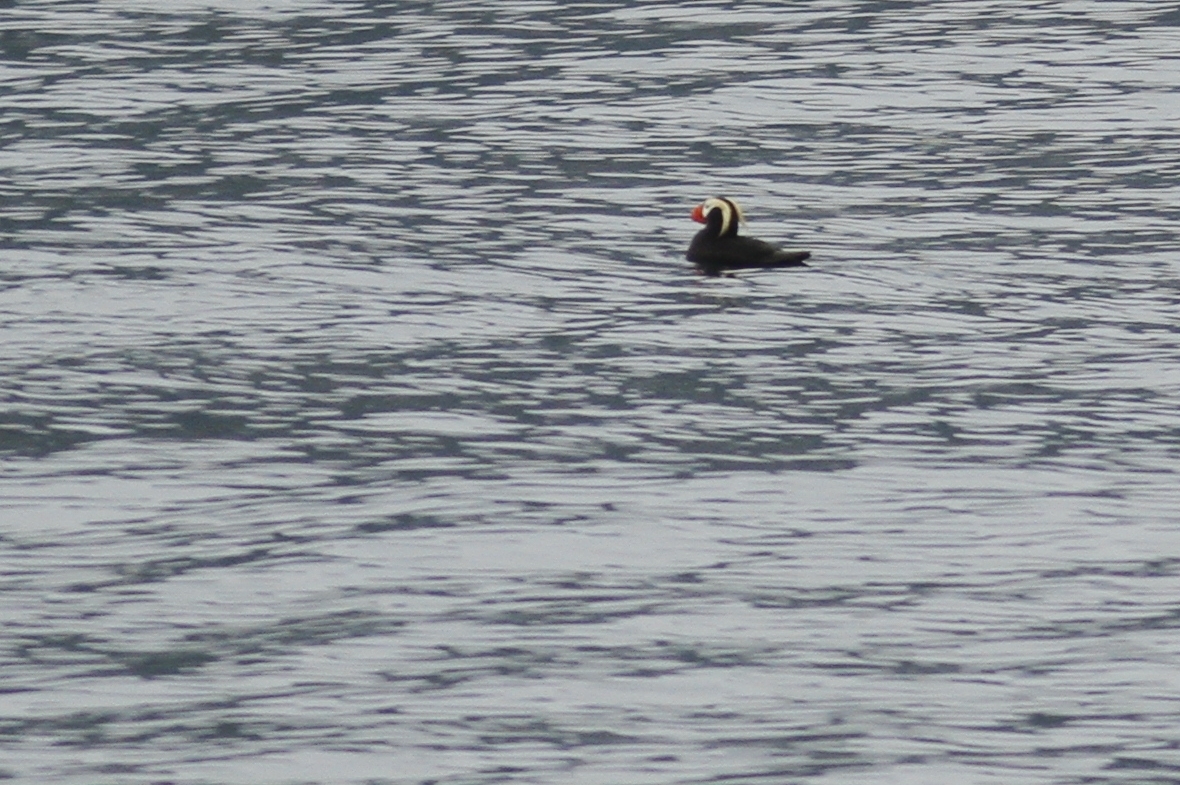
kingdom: Animalia
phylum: Chordata
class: Aves
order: Charadriiformes
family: Alcidae
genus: Fratercula
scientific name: Fratercula cirrhata
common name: Tufted puffin
